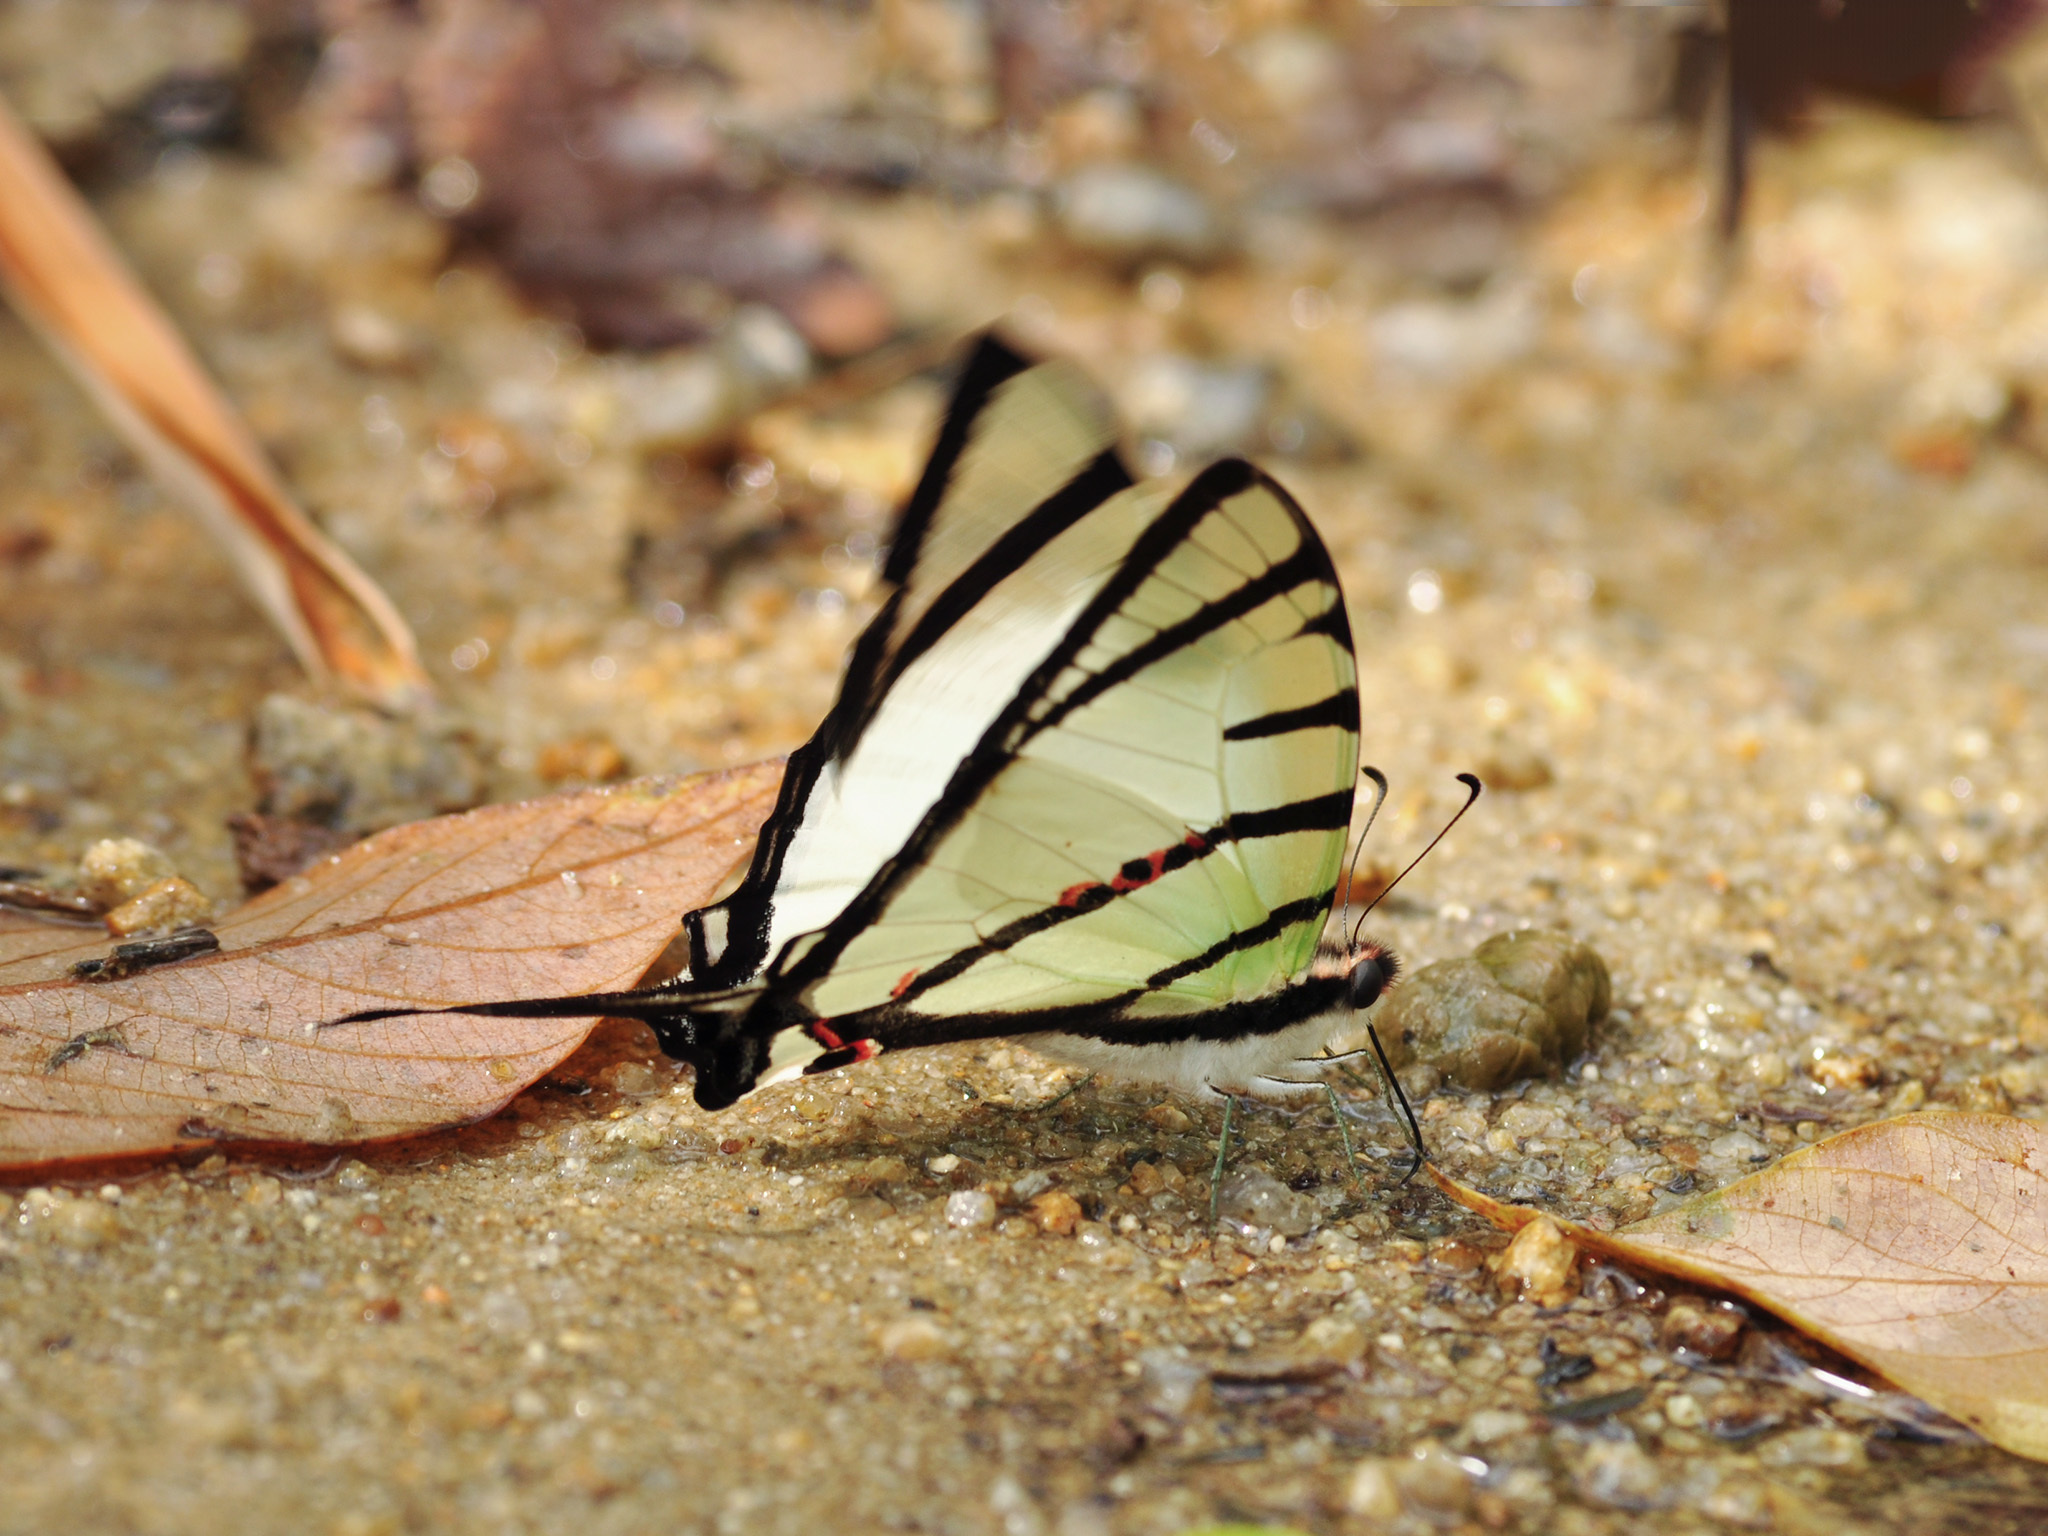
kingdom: Animalia
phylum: Arthropoda
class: Insecta
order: Lepidoptera
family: Papilionidae
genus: Graphium
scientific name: Graphium agetes
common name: Fourbar swordtail
